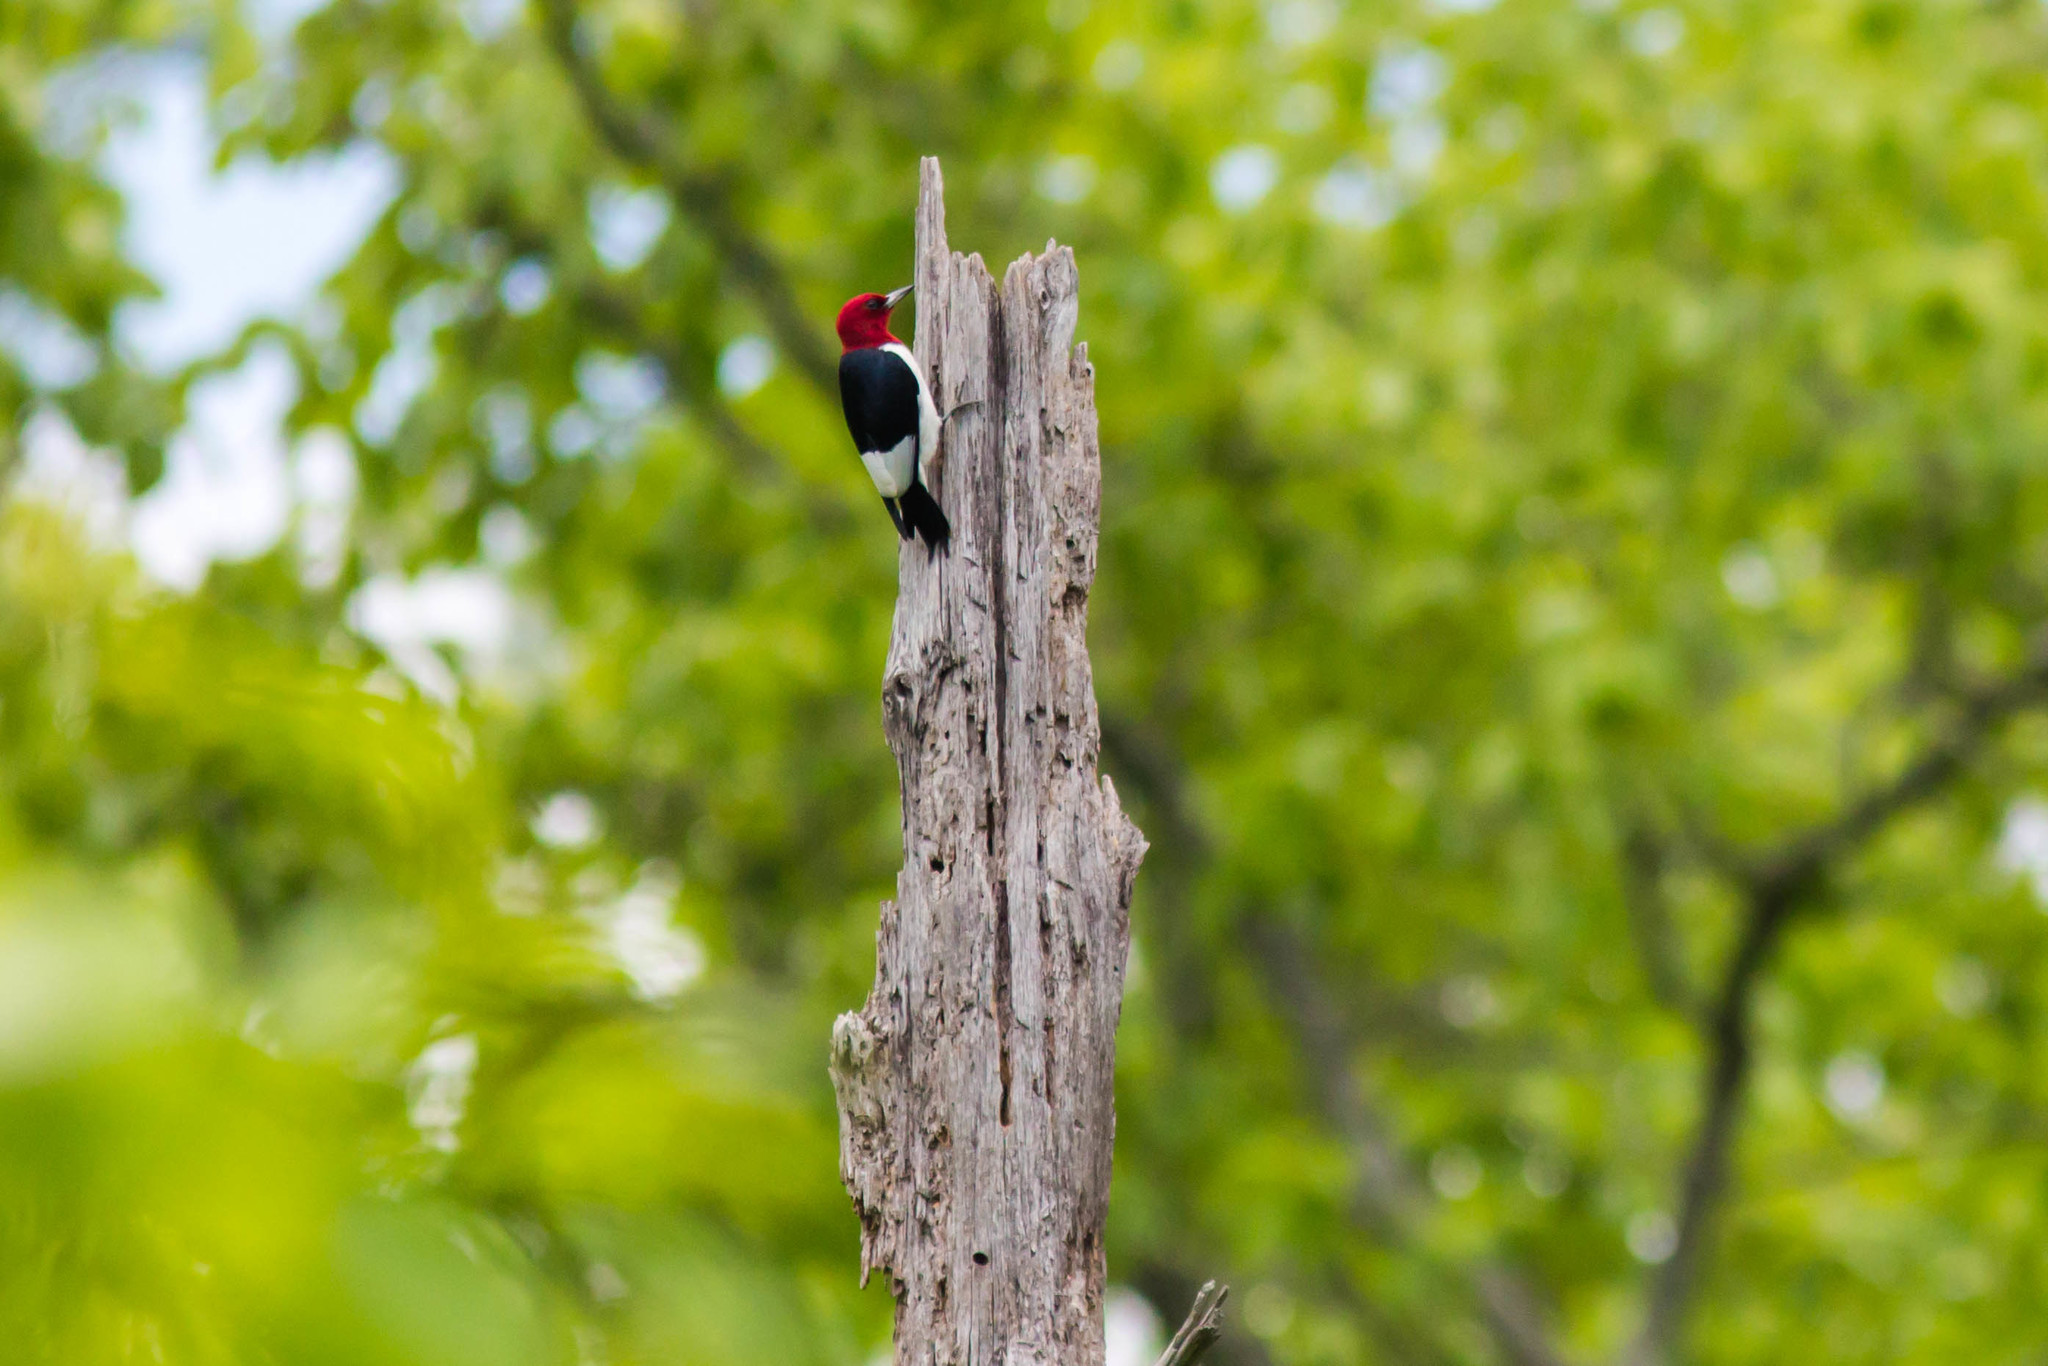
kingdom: Animalia
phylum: Chordata
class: Aves
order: Piciformes
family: Picidae
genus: Melanerpes
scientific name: Melanerpes erythrocephalus
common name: Red-headed woodpecker
